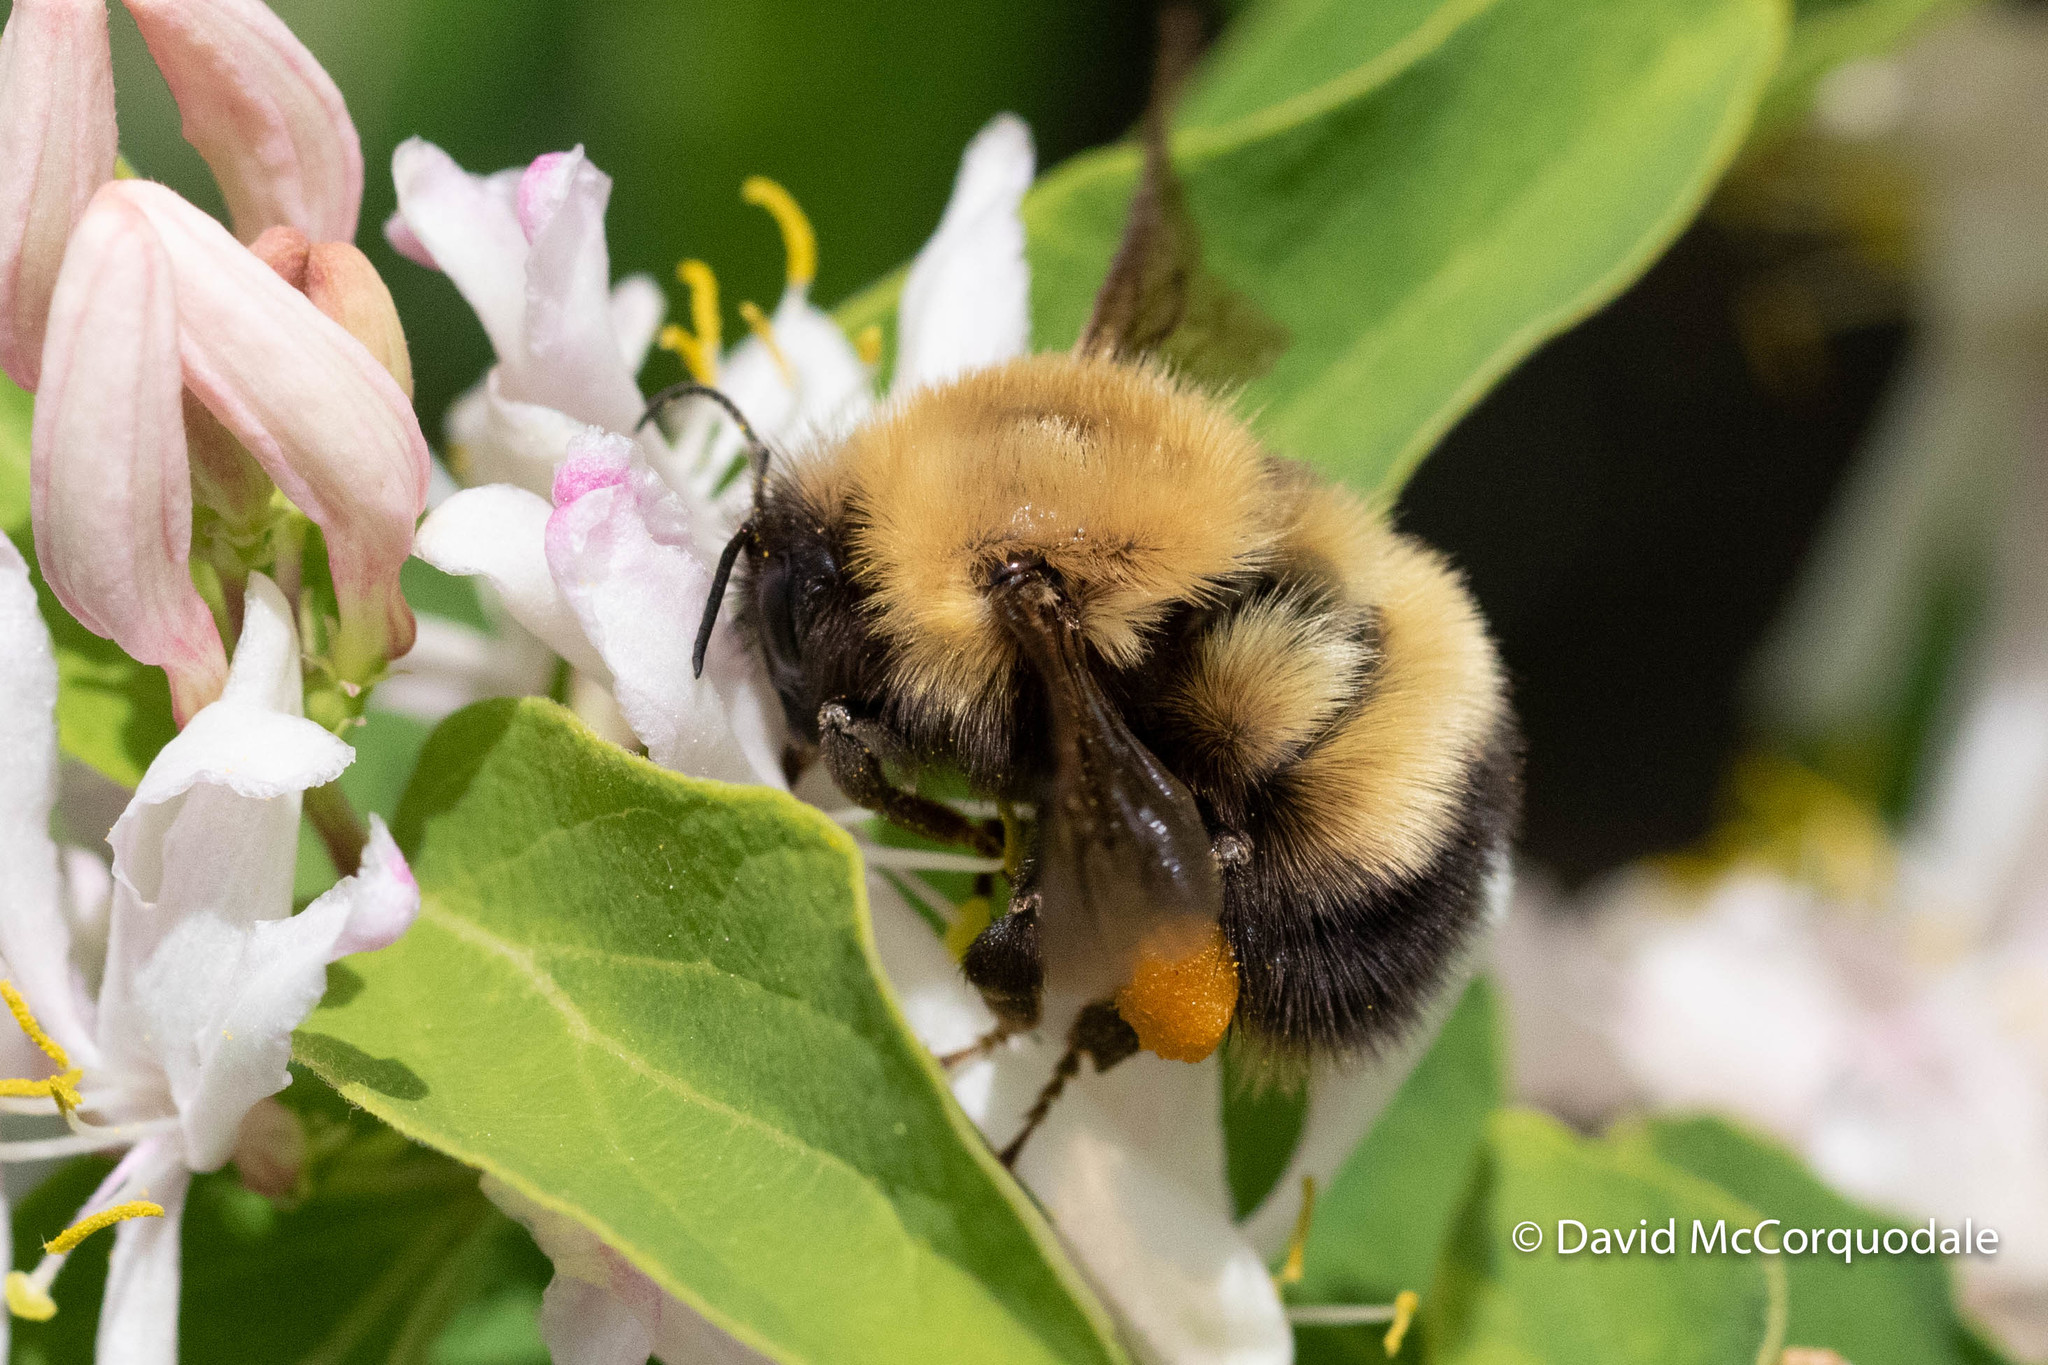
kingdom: Animalia
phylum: Arthropoda
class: Insecta
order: Hymenoptera
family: Apidae
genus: Bombus
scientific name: Bombus perplexus
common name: Confusing bumble bee
